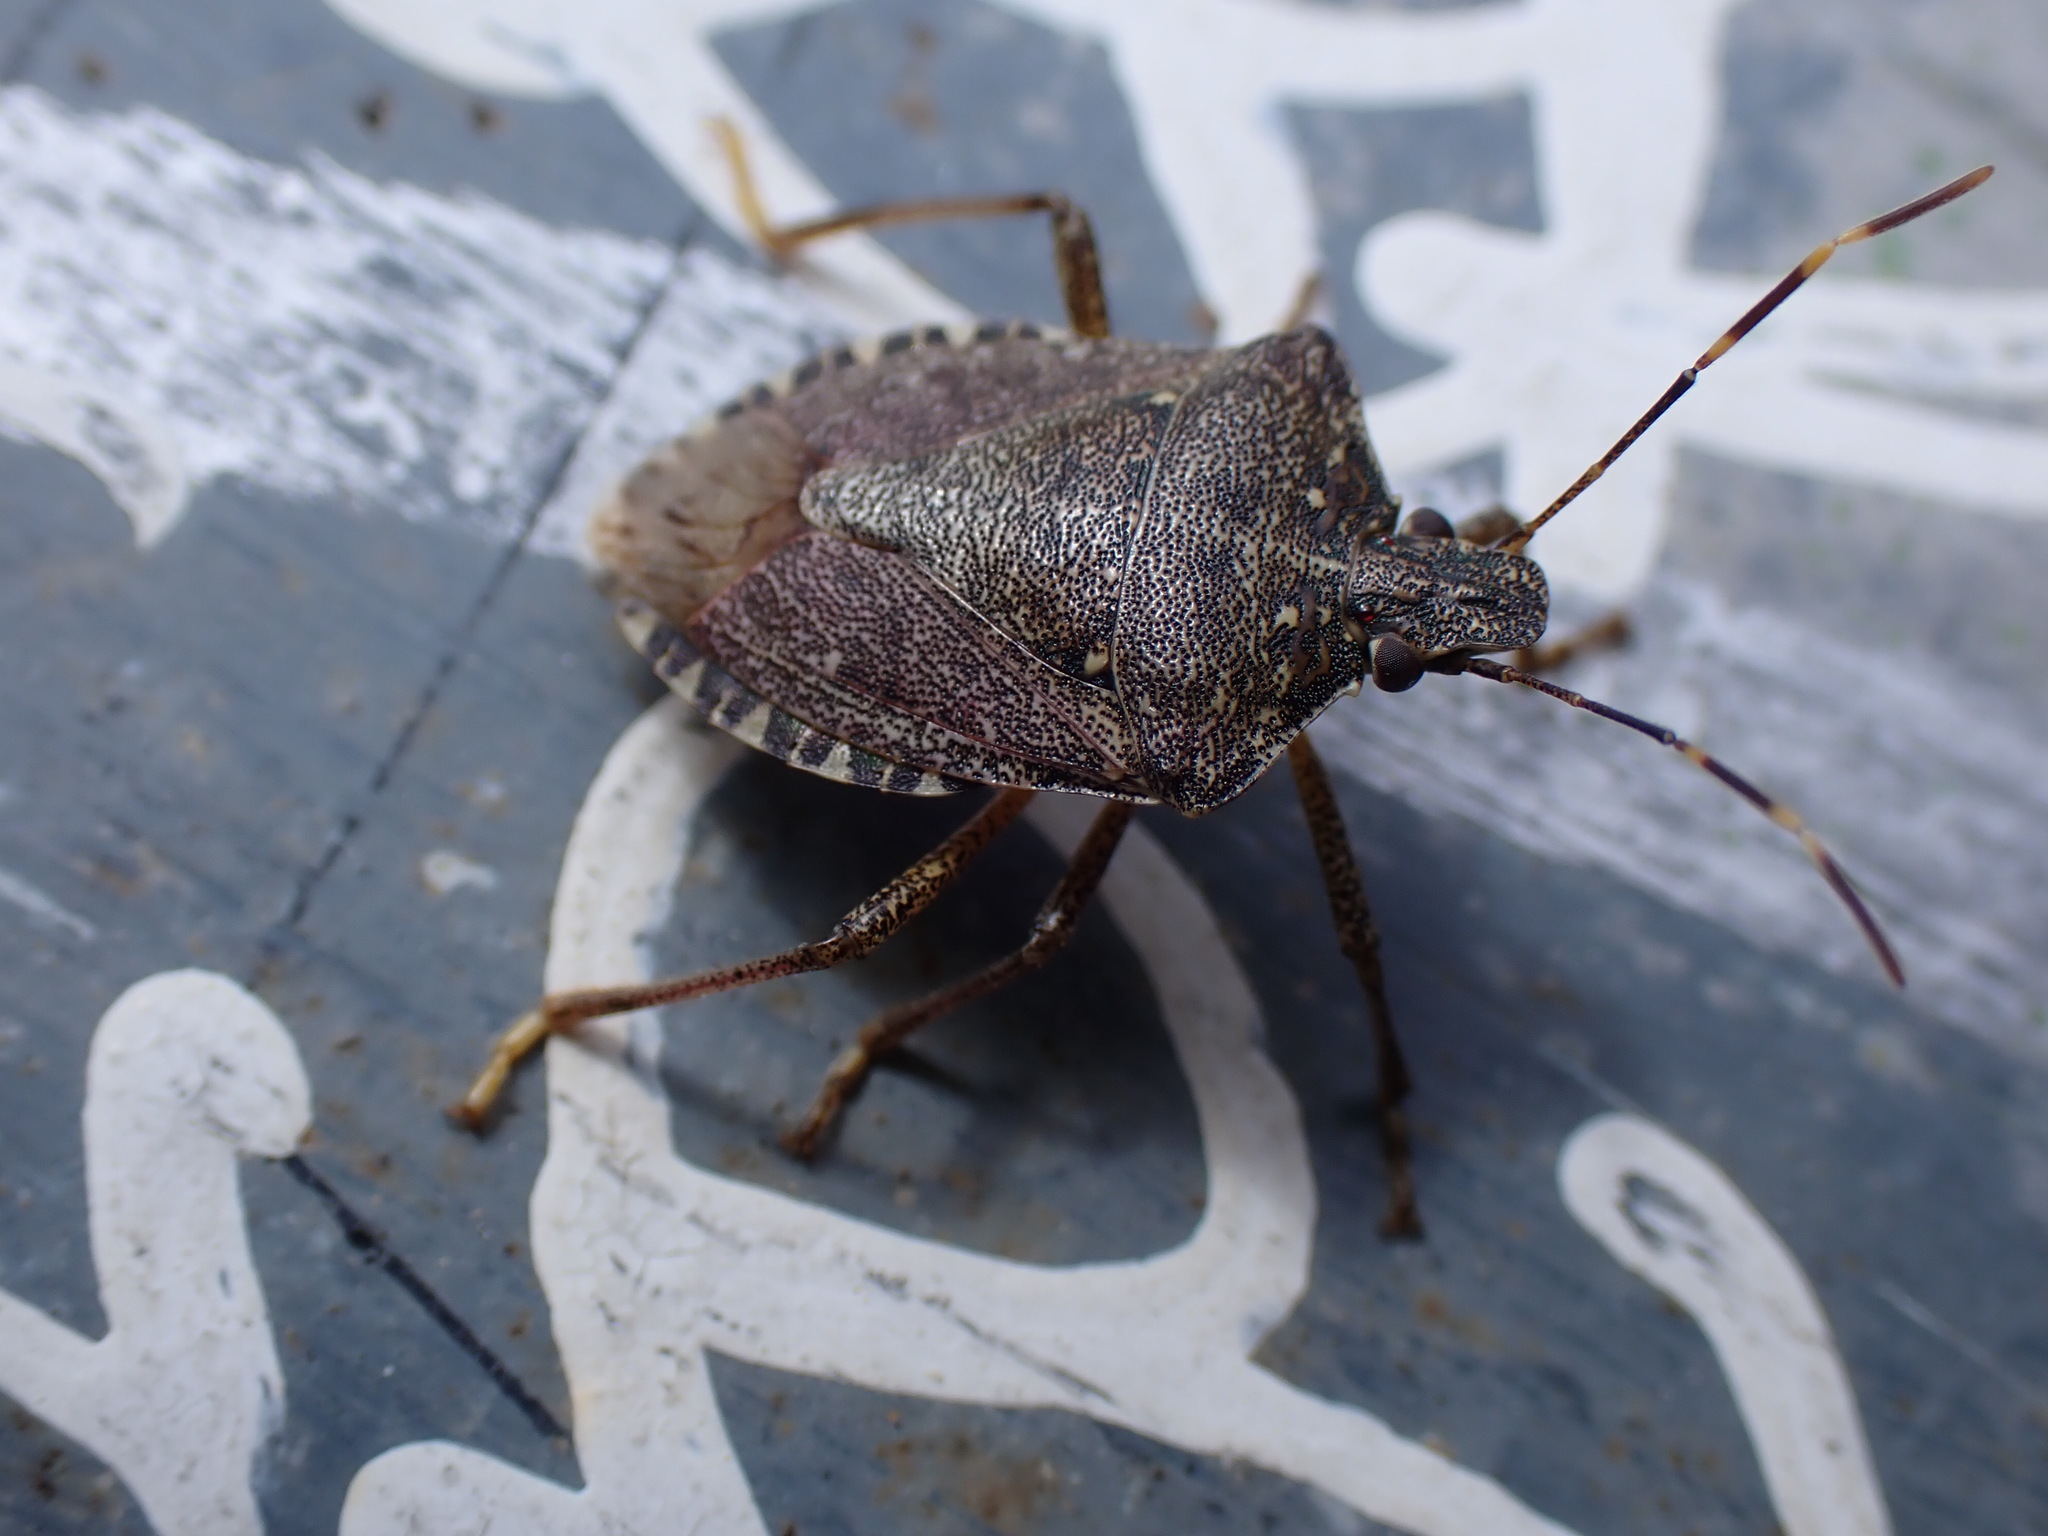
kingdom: Animalia
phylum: Arthropoda
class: Insecta
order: Hemiptera
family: Pentatomidae
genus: Halyomorpha
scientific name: Halyomorpha halys
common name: Brown marmorated stink bug
